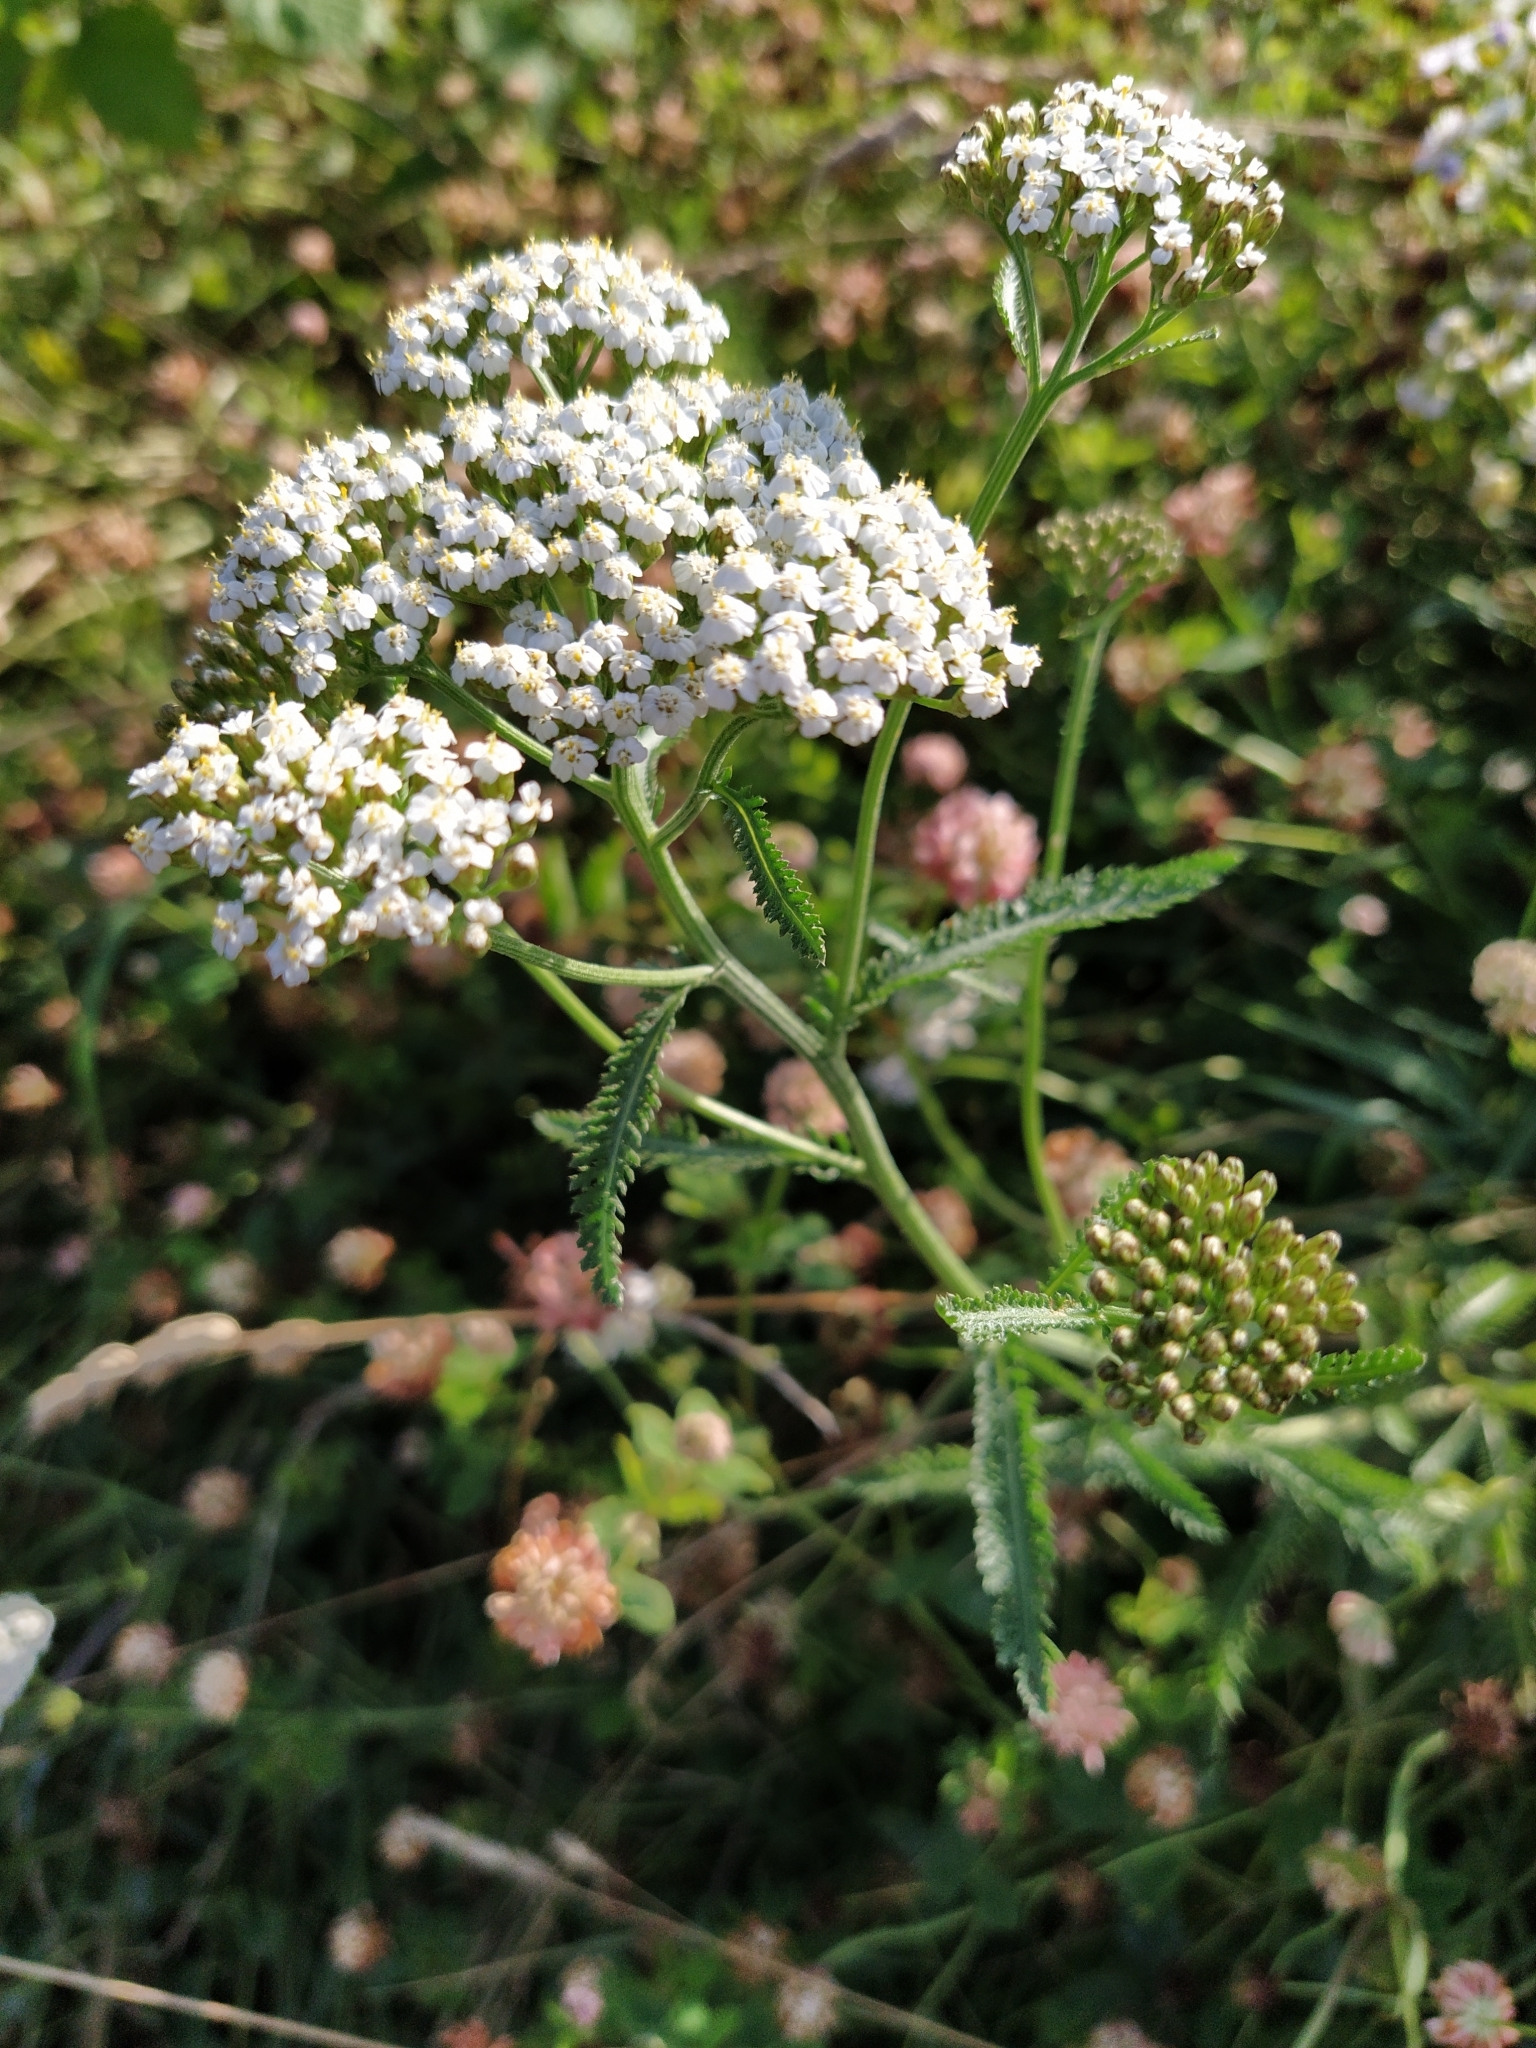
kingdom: Plantae
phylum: Tracheophyta
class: Magnoliopsida
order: Asterales
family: Asteraceae
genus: Achillea
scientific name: Achillea millefolium
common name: Yarrow
